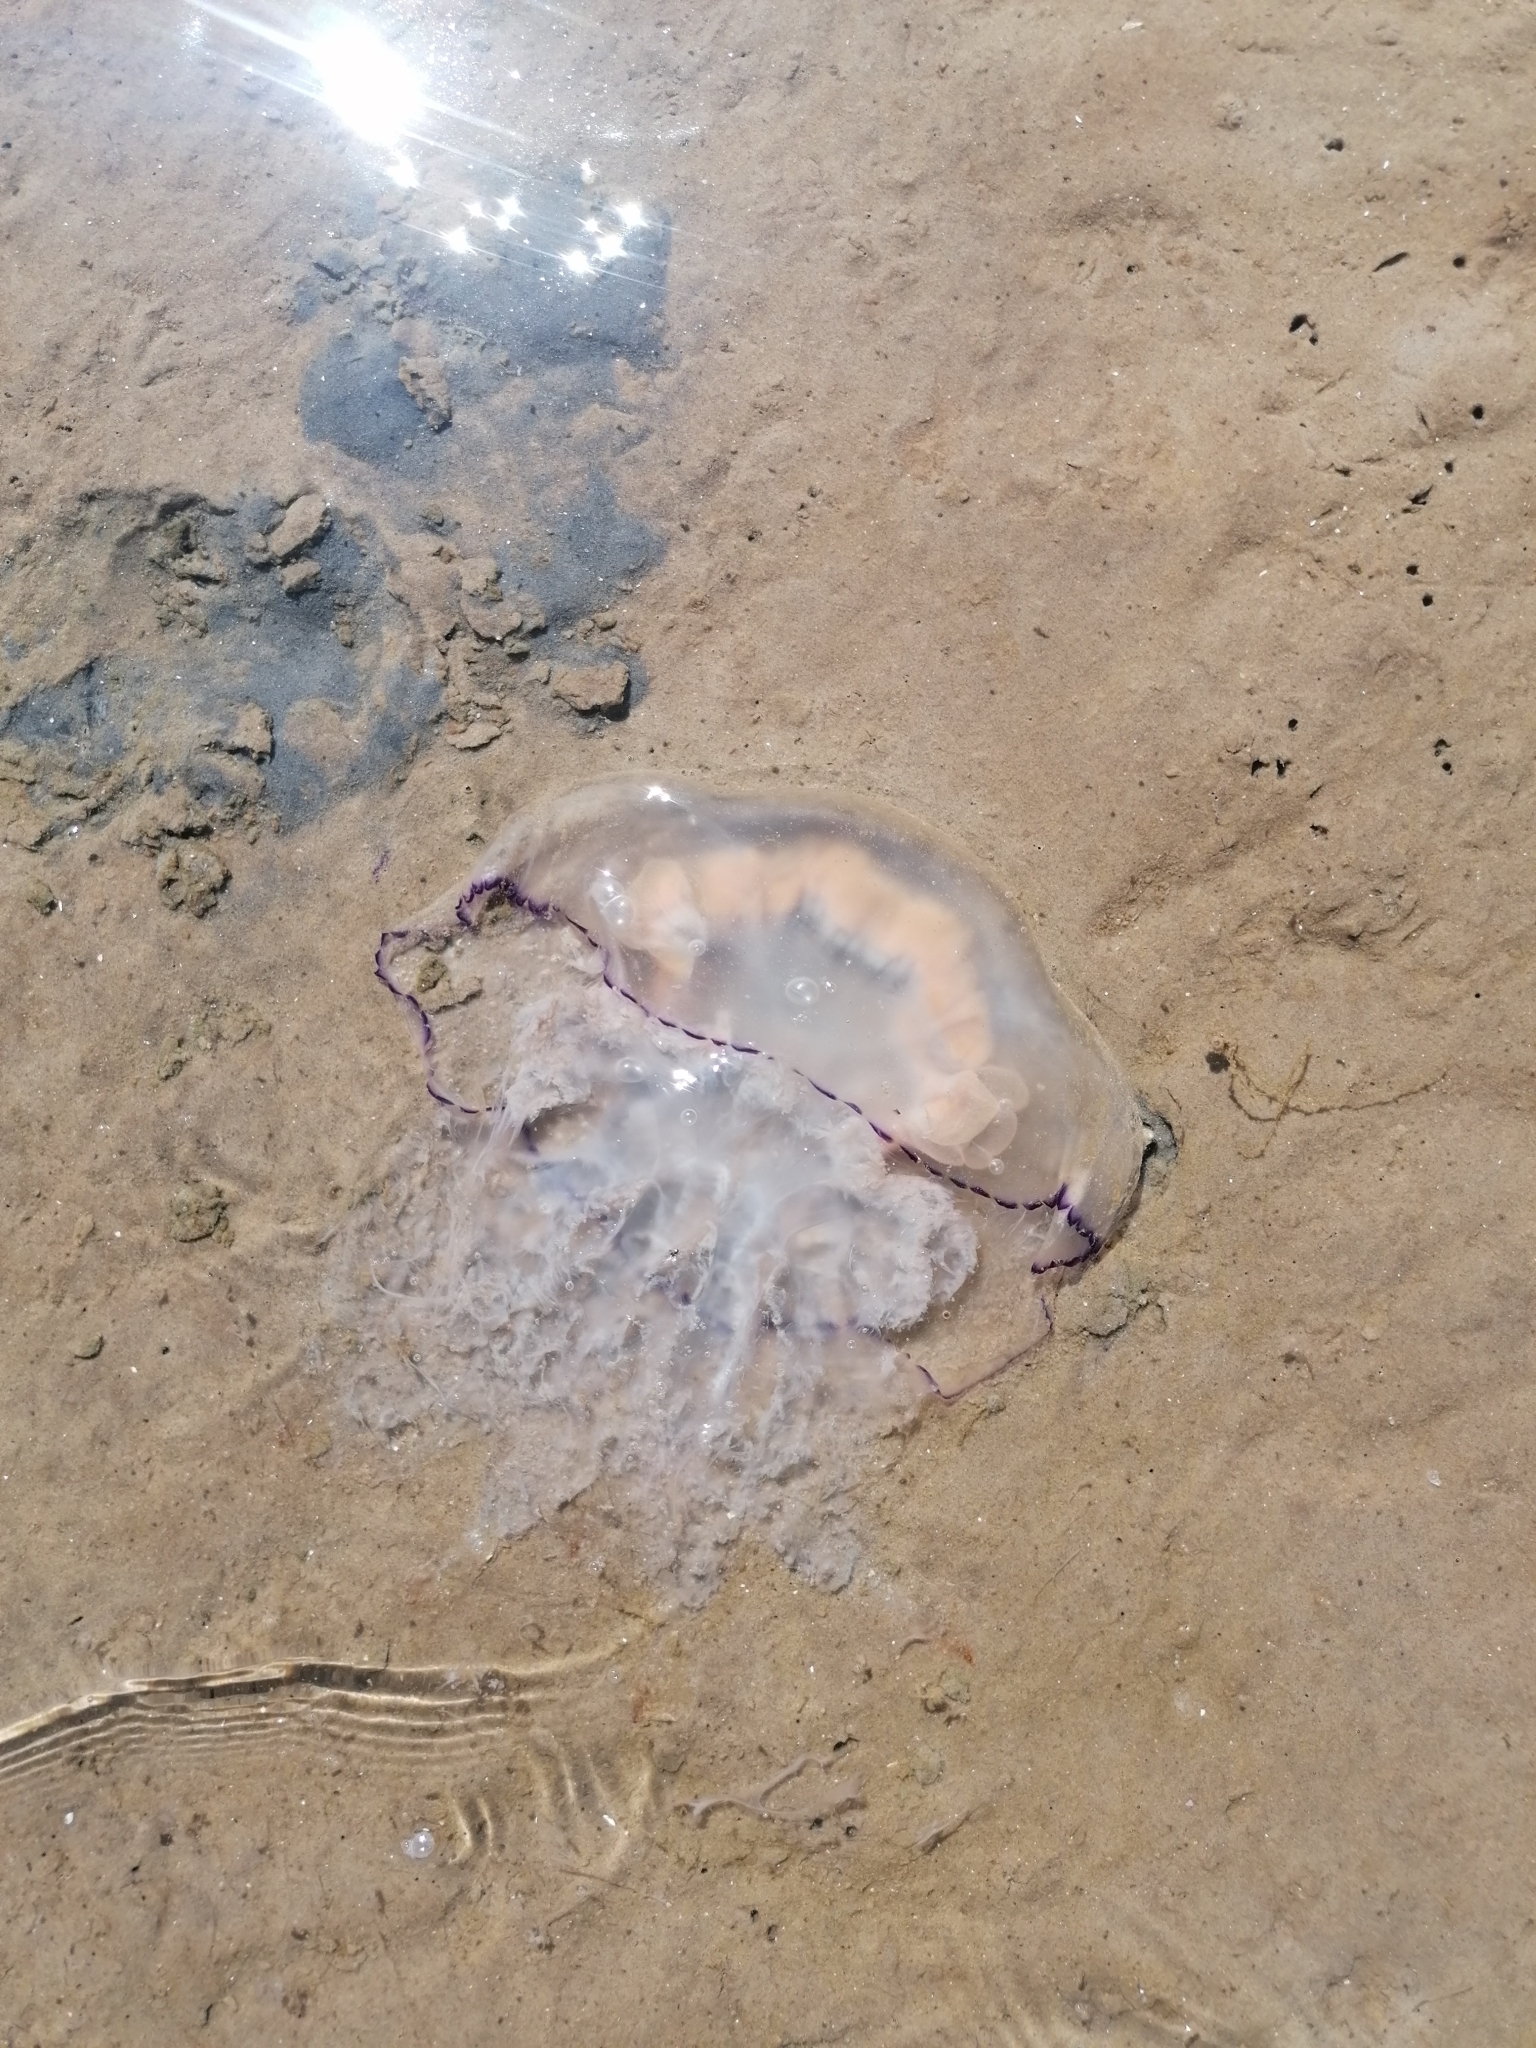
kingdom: Animalia
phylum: Cnidaria
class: Scyphozoa
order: Rhizostomeae
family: Rhizostomatidae
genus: Rhizostoma
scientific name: Rhizostoma octopus
